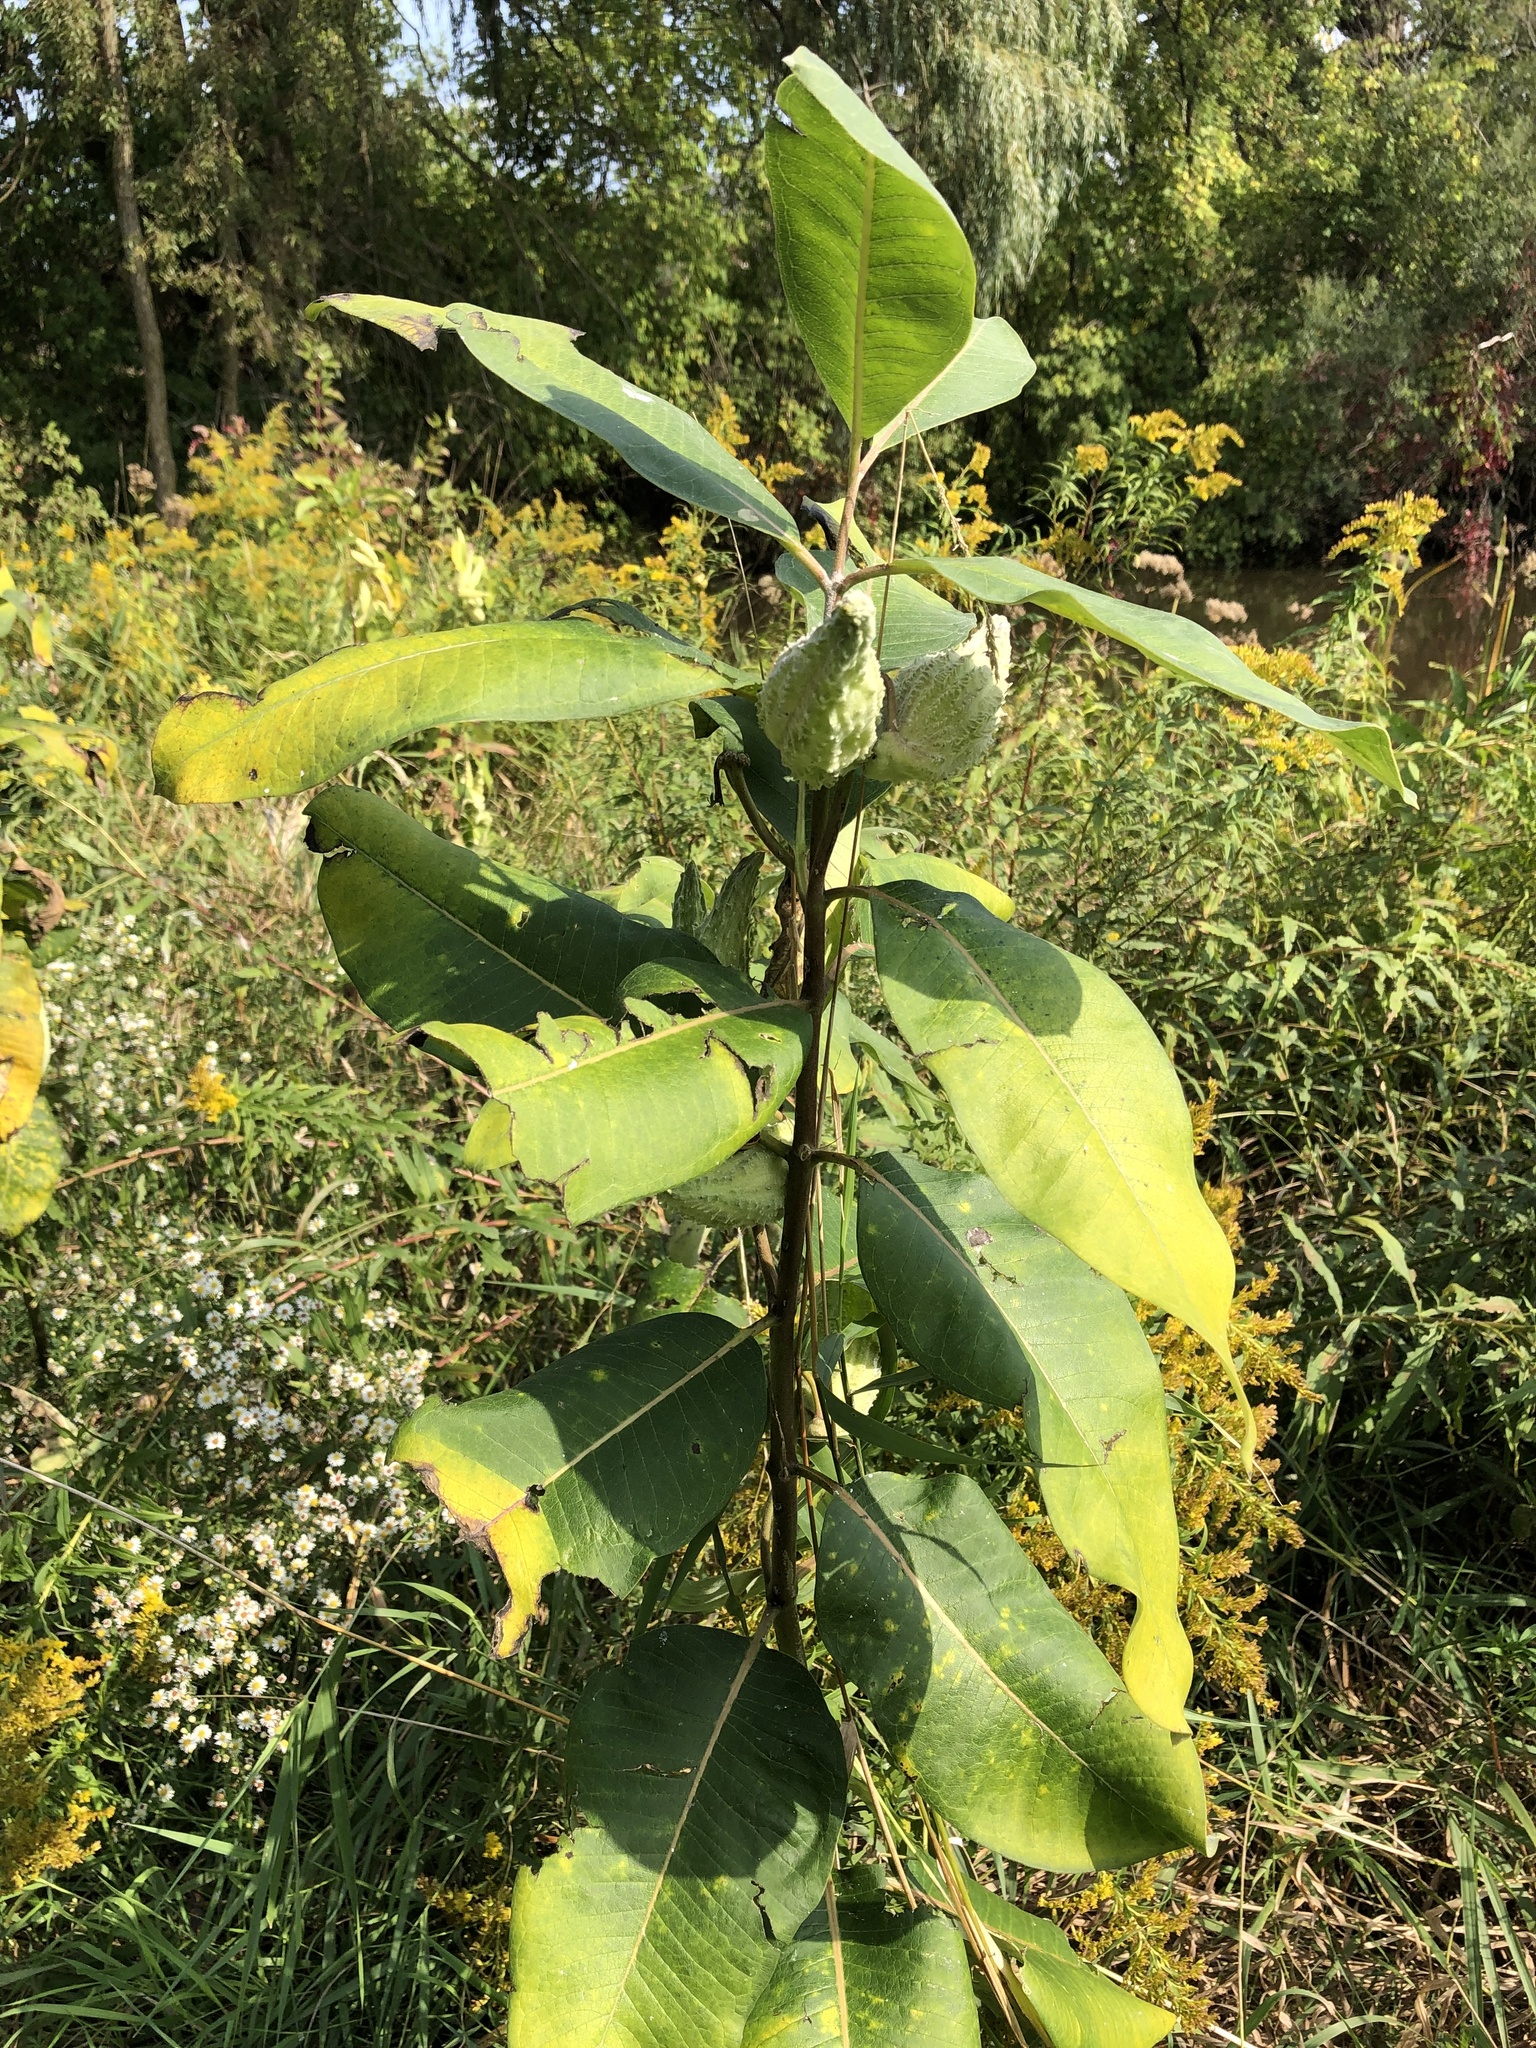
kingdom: Plantae
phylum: Tracheophyta
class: Magnoliopsida
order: Gentianales
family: Apocynaceae
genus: Asclepias
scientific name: Asclepias syriaca
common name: Common milkweed
